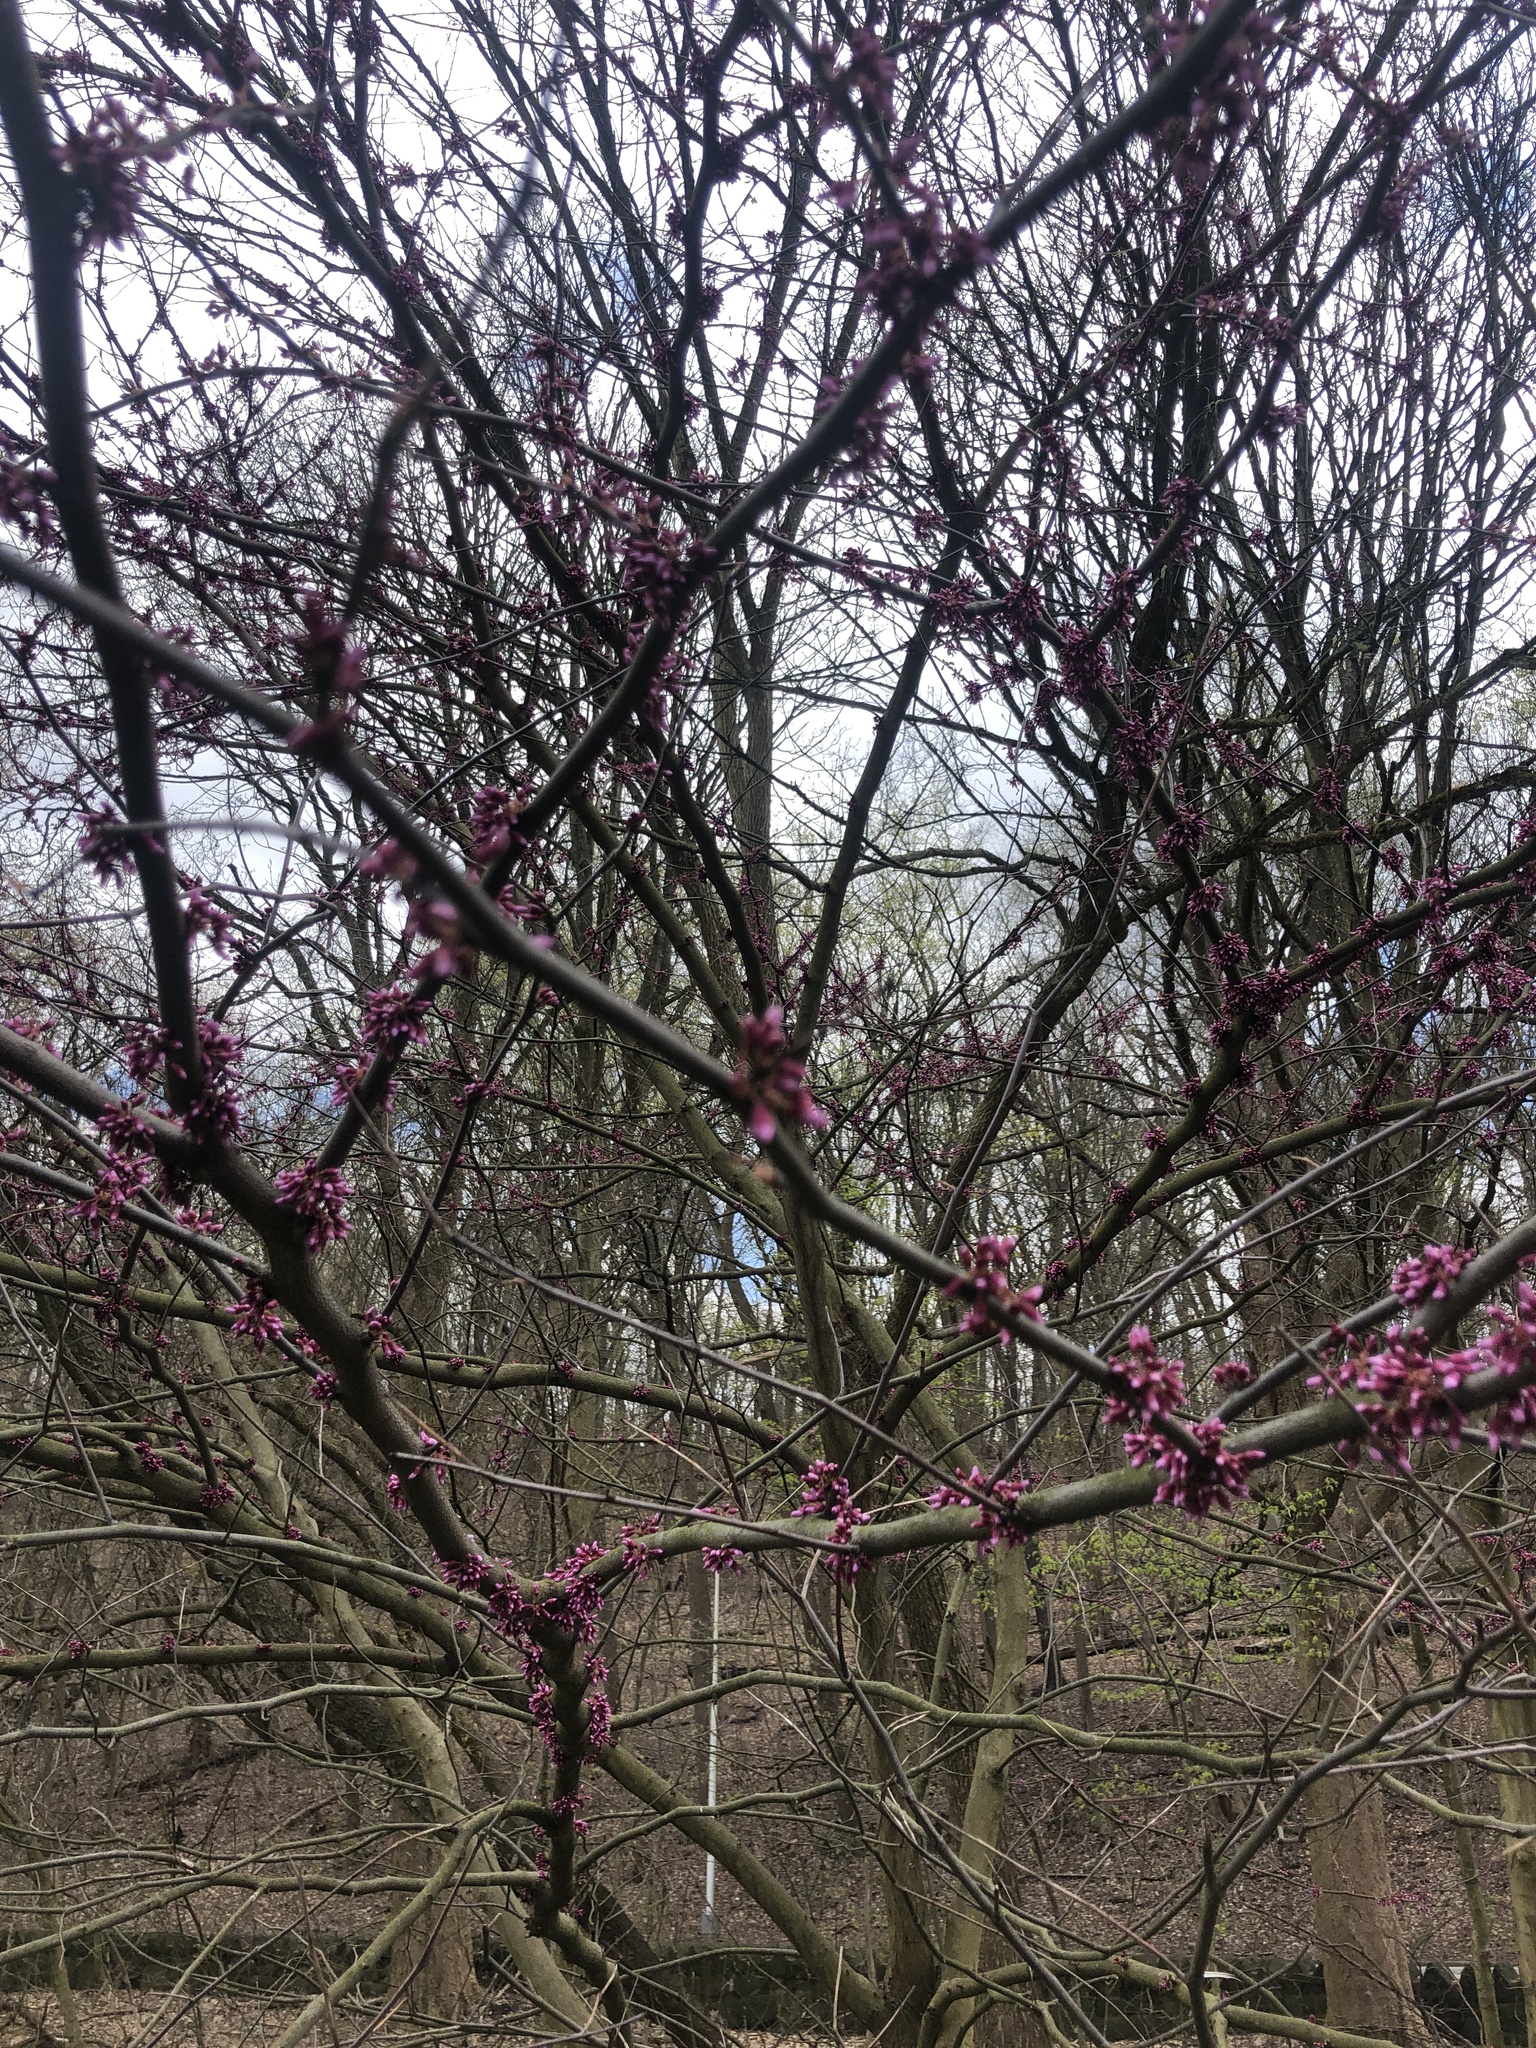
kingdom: Plantae
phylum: Tracheophyta
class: Magnoliopsida
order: Fabales
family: Fabaceae
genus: Cercis
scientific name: Cercis canadensis
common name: Eastern redbud
